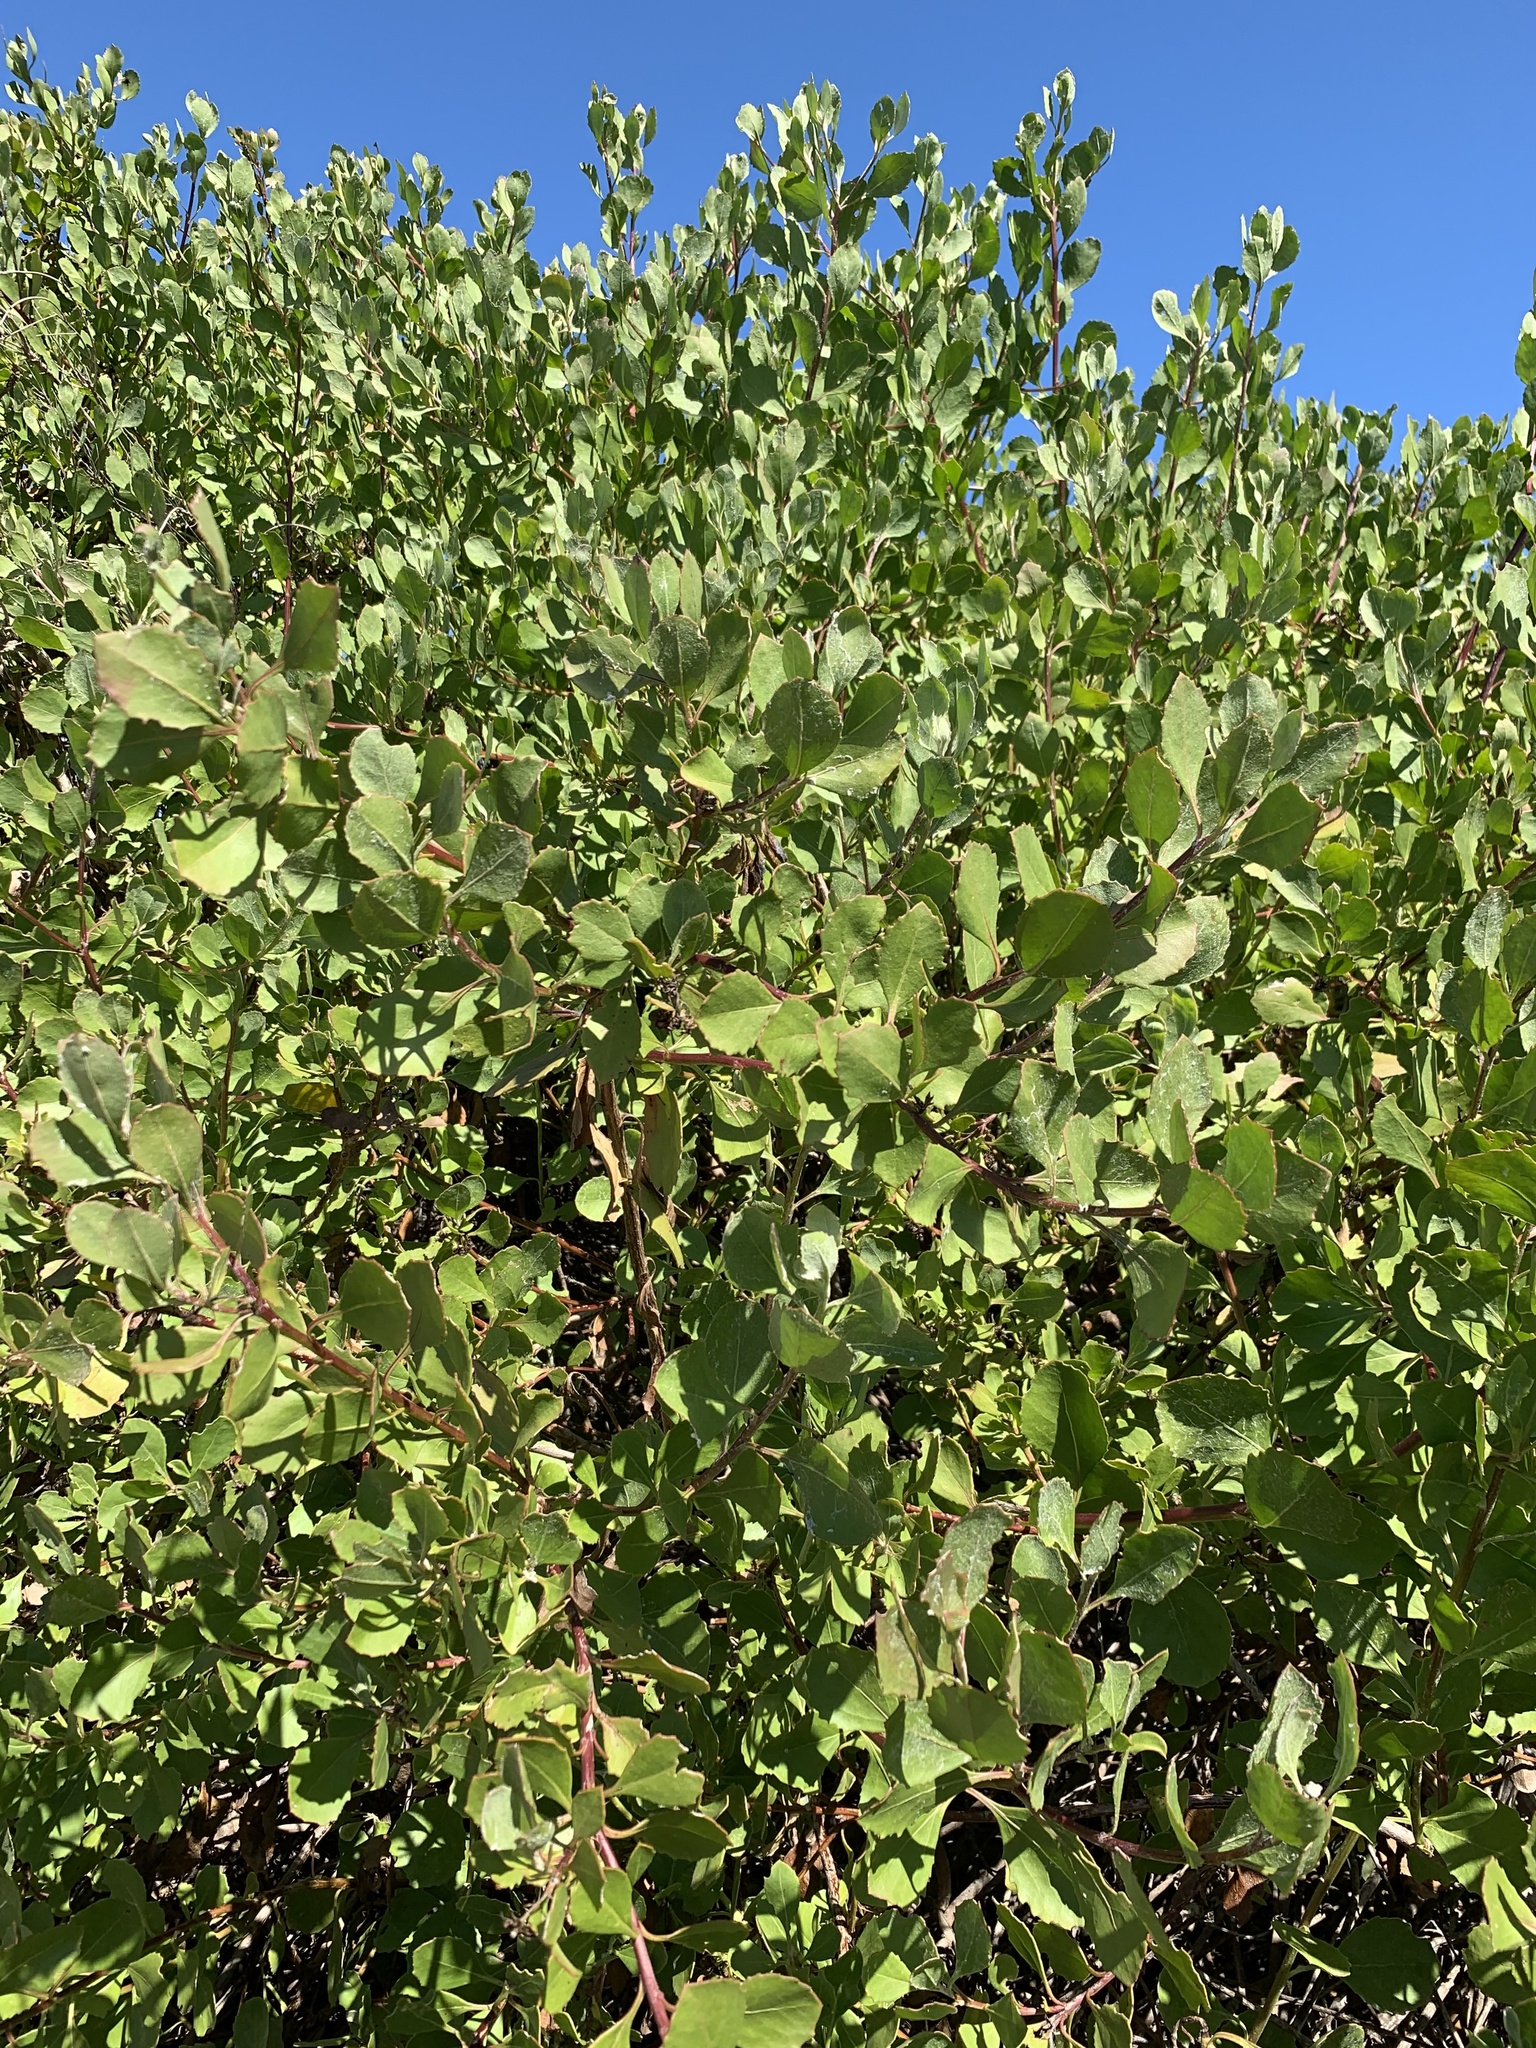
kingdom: Plantae
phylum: Tracheophyta
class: Magnoliopsida
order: Asterales
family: Asteraceae
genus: Osteospermum
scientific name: Osteospermum moniliferum
